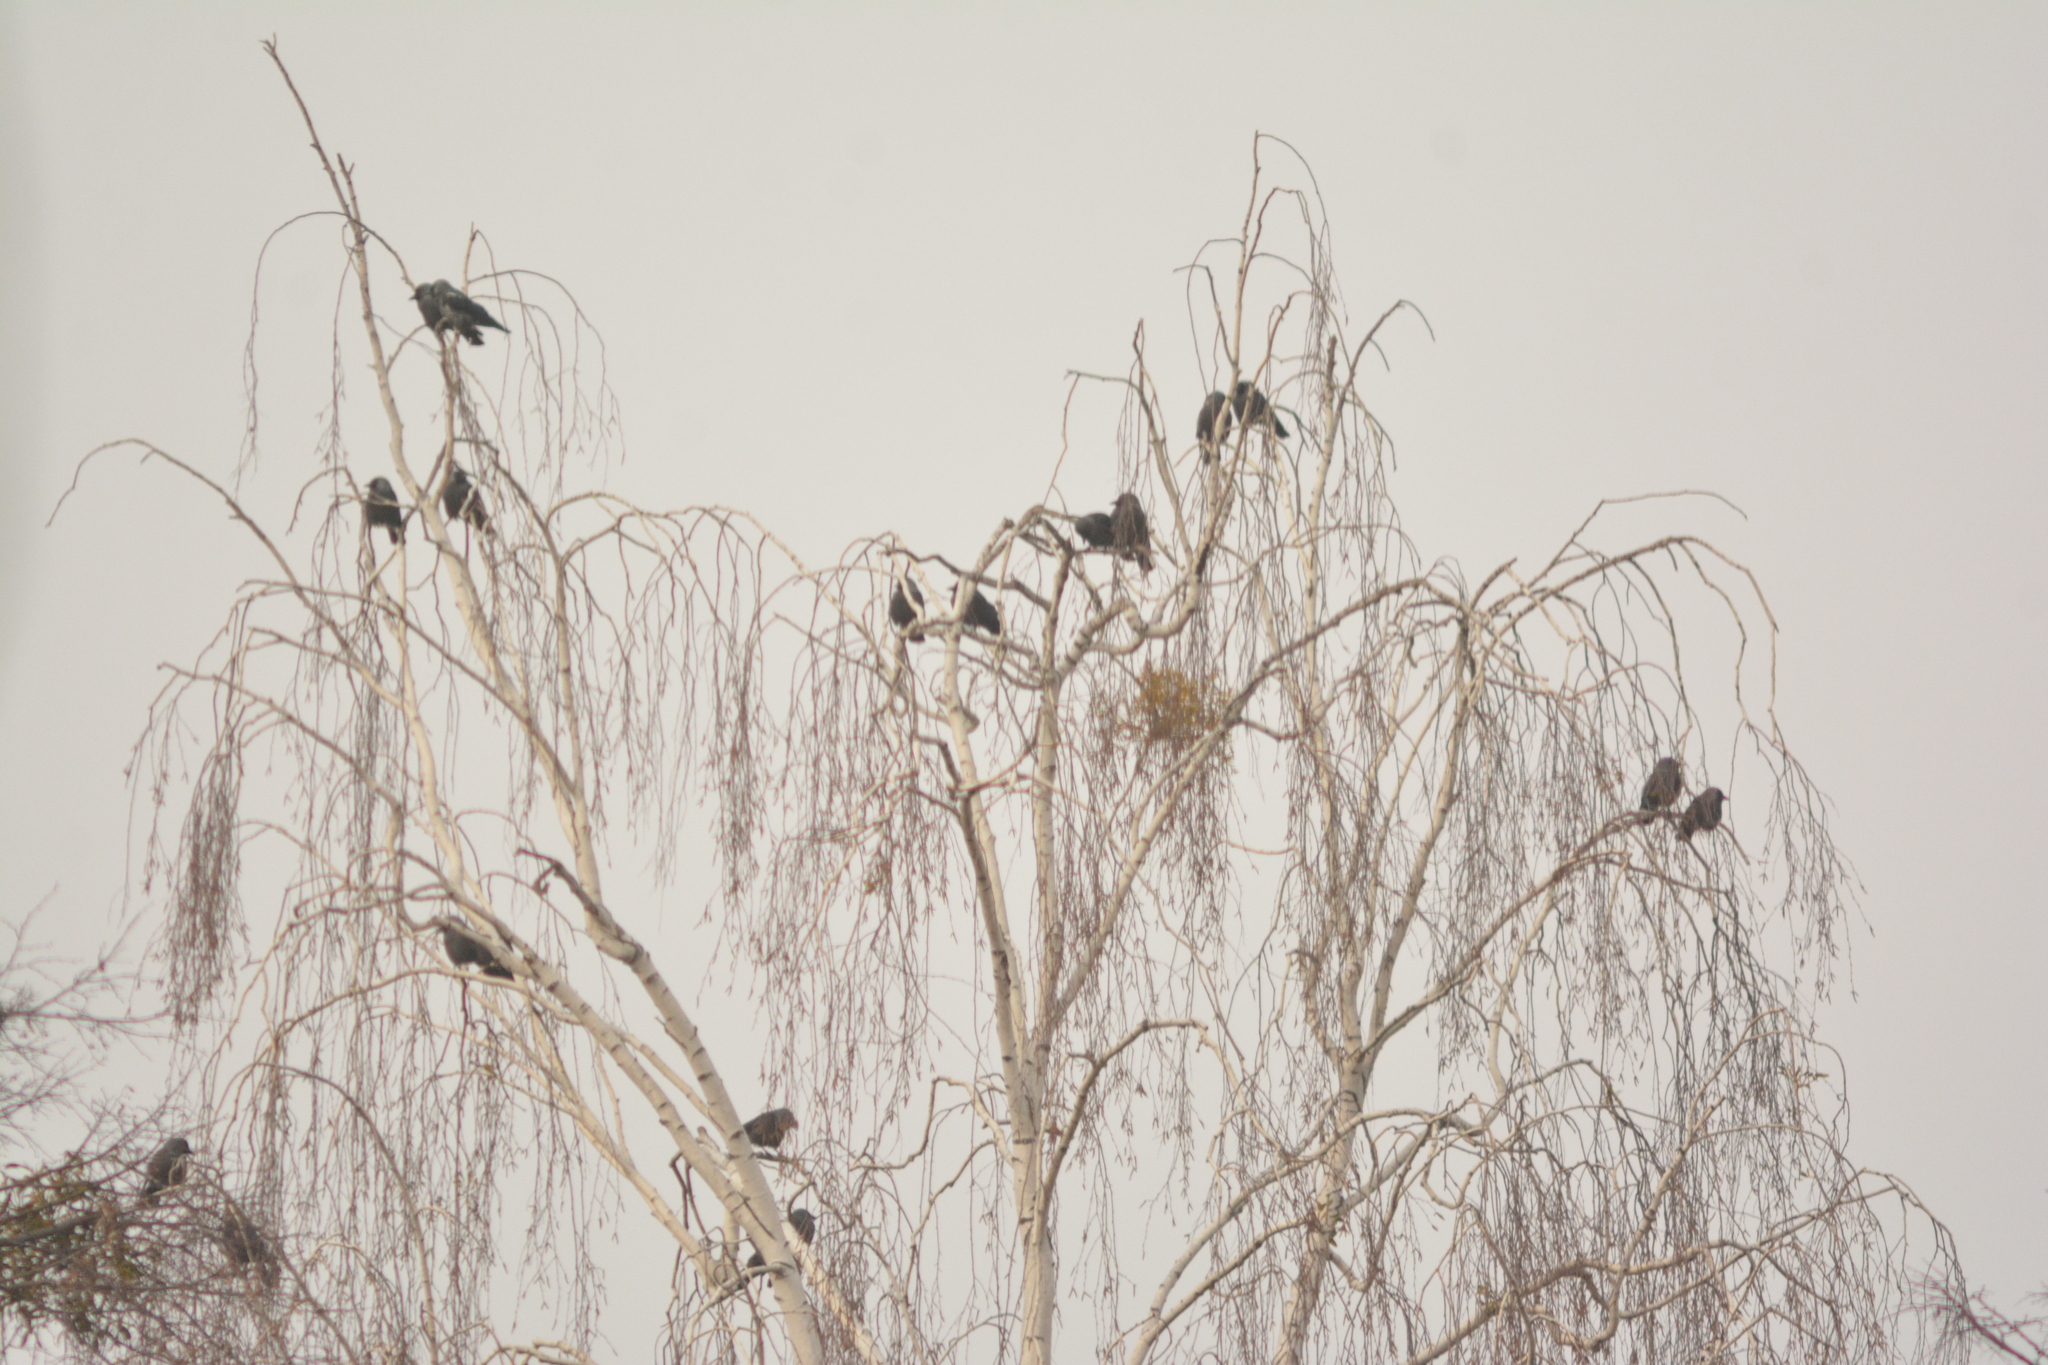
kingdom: Animalia
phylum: Chordata
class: Aves
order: Passeriformes
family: Corvidae
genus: Coloeus
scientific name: Coloeus monedula
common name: Western jackdaw
